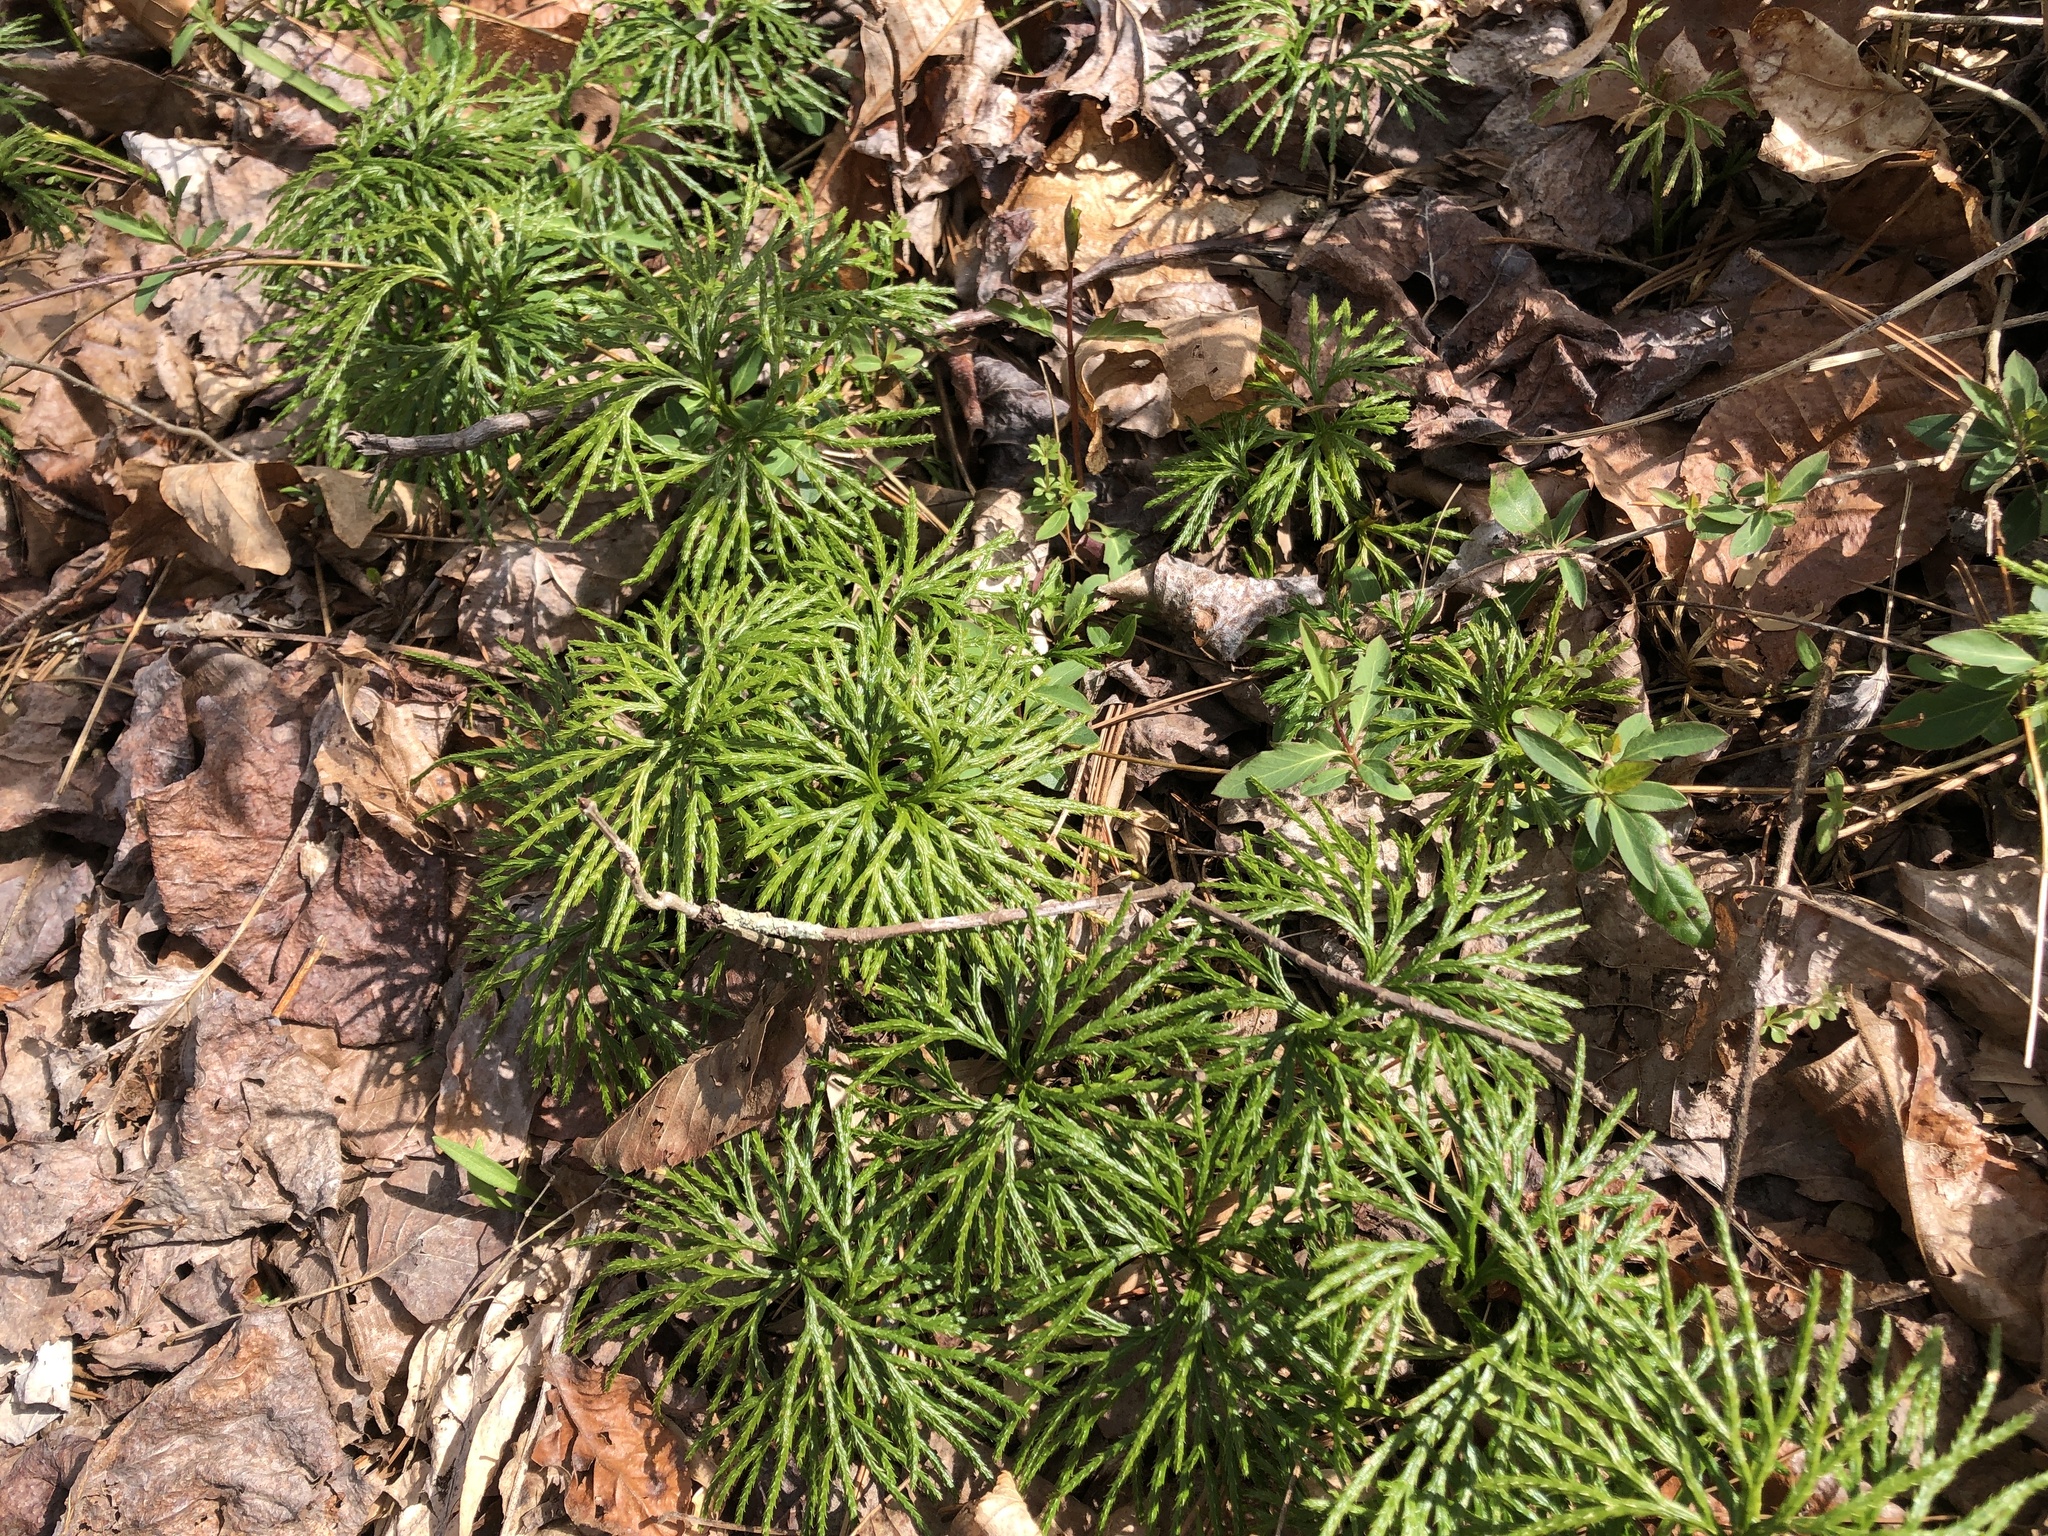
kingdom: Plantae
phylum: Tracheophyta
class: Lycopodiopsida
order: Lycopodiales
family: Lycopodiaceae
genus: Diphasiastrum
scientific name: Diphasiastrum digitatum
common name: Southern running-pine
